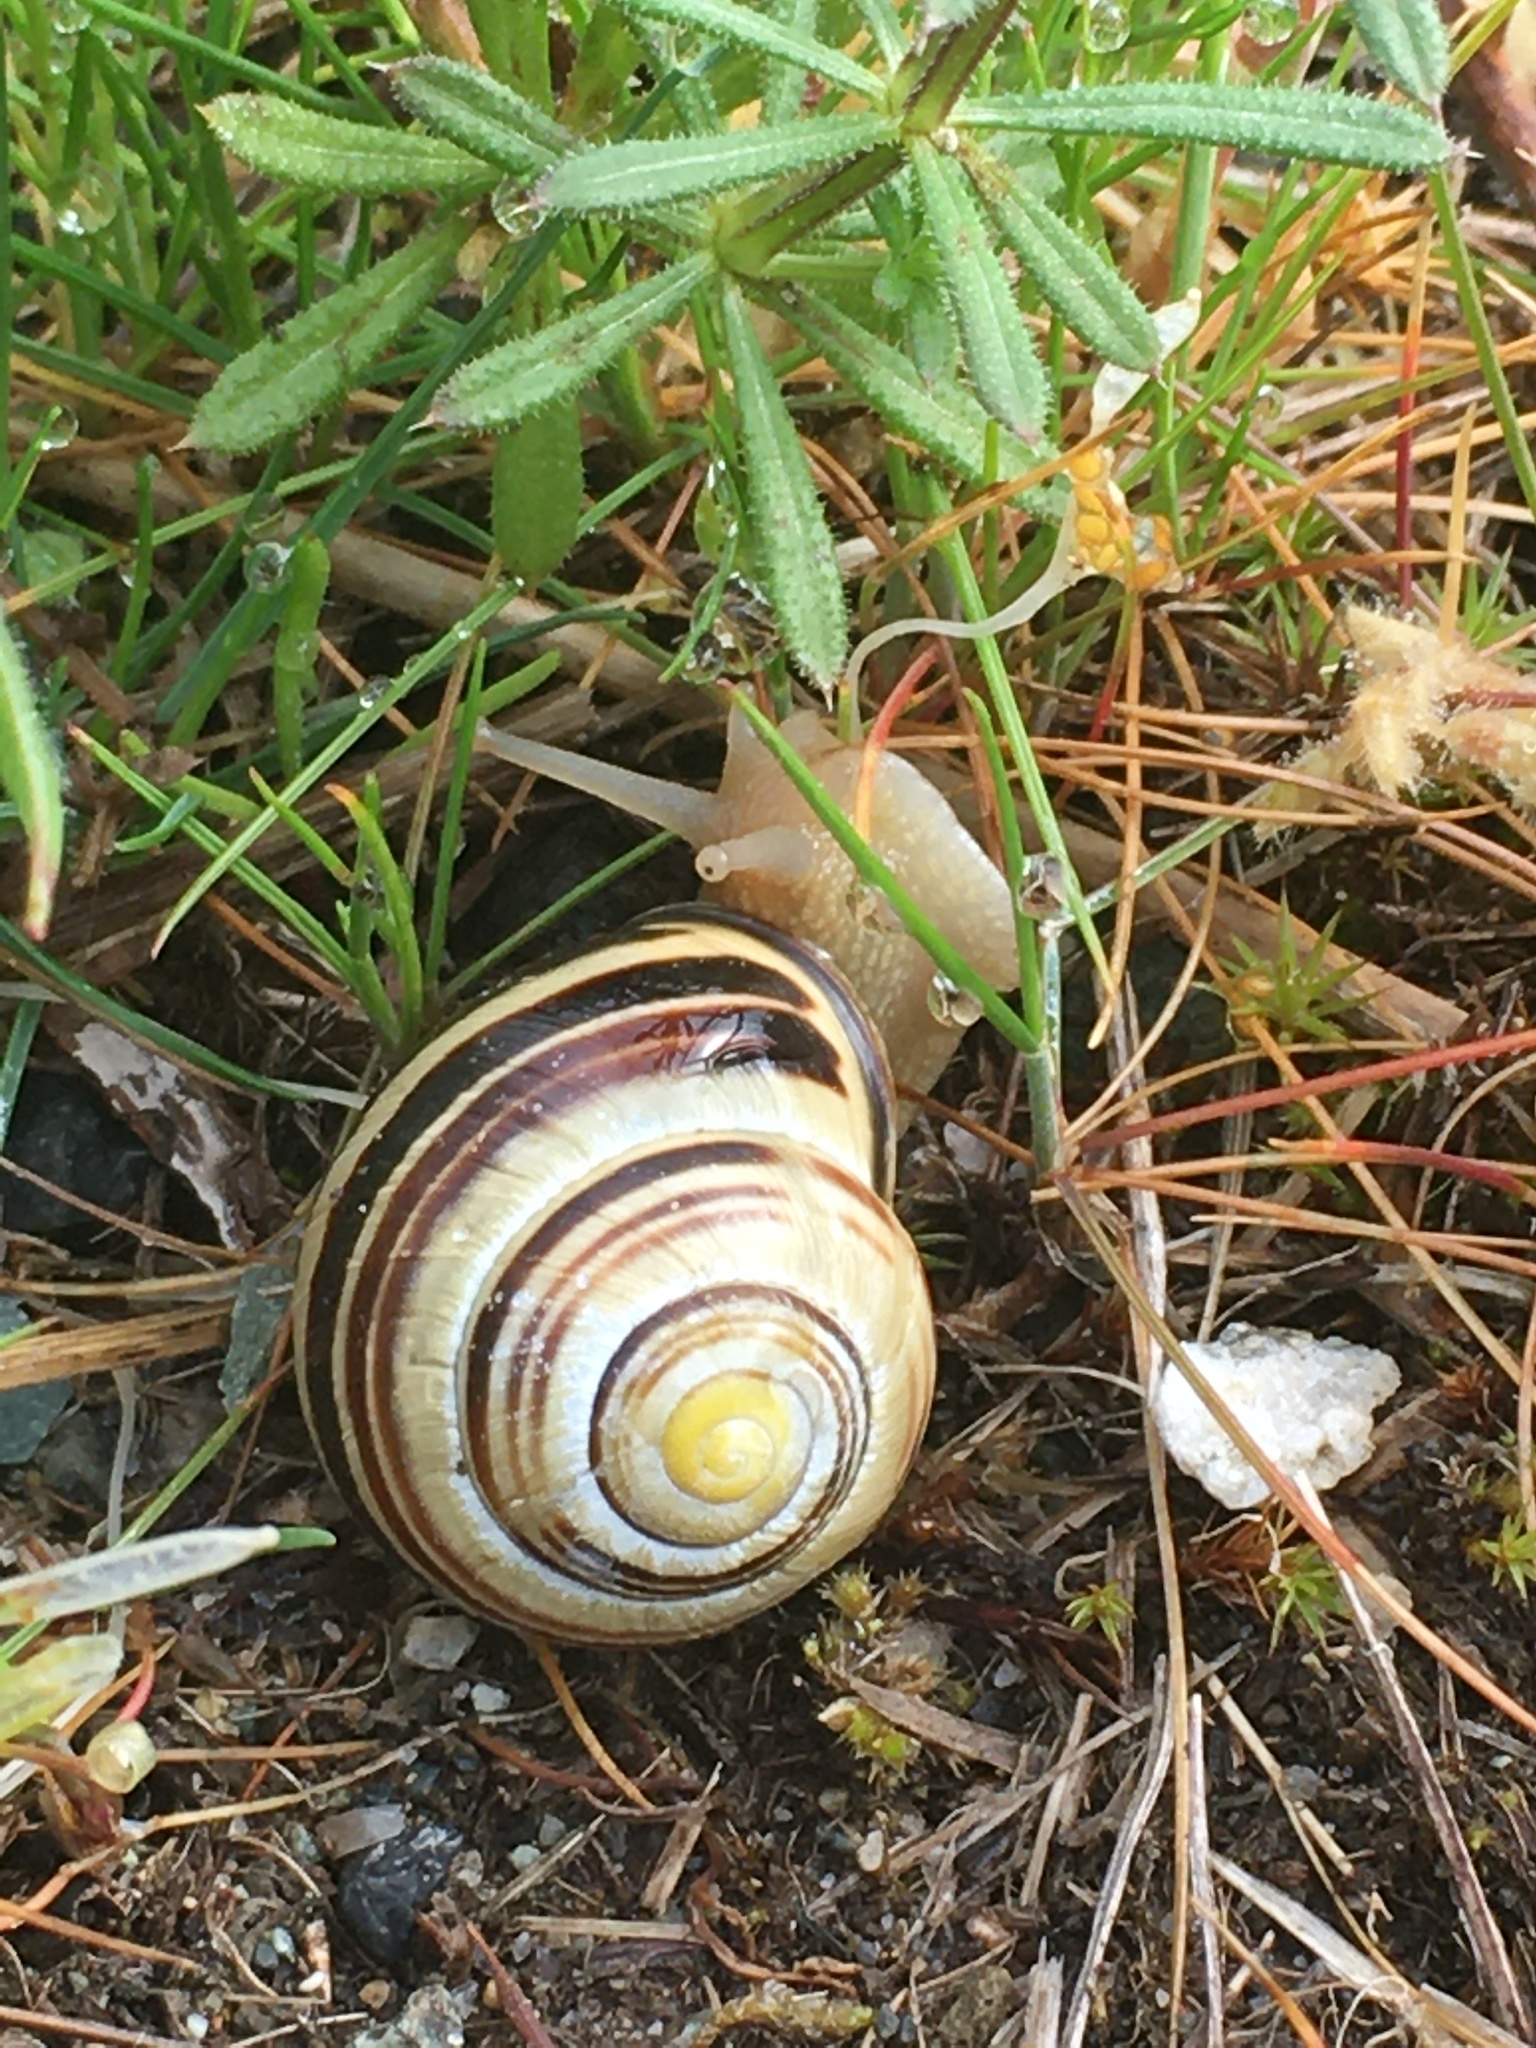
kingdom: Animalia
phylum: Mollusca
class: Gastropoda
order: Stylommatophora
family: Helicidae
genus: Cepaea
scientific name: Cepaea nemoralis
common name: Grovesnail
